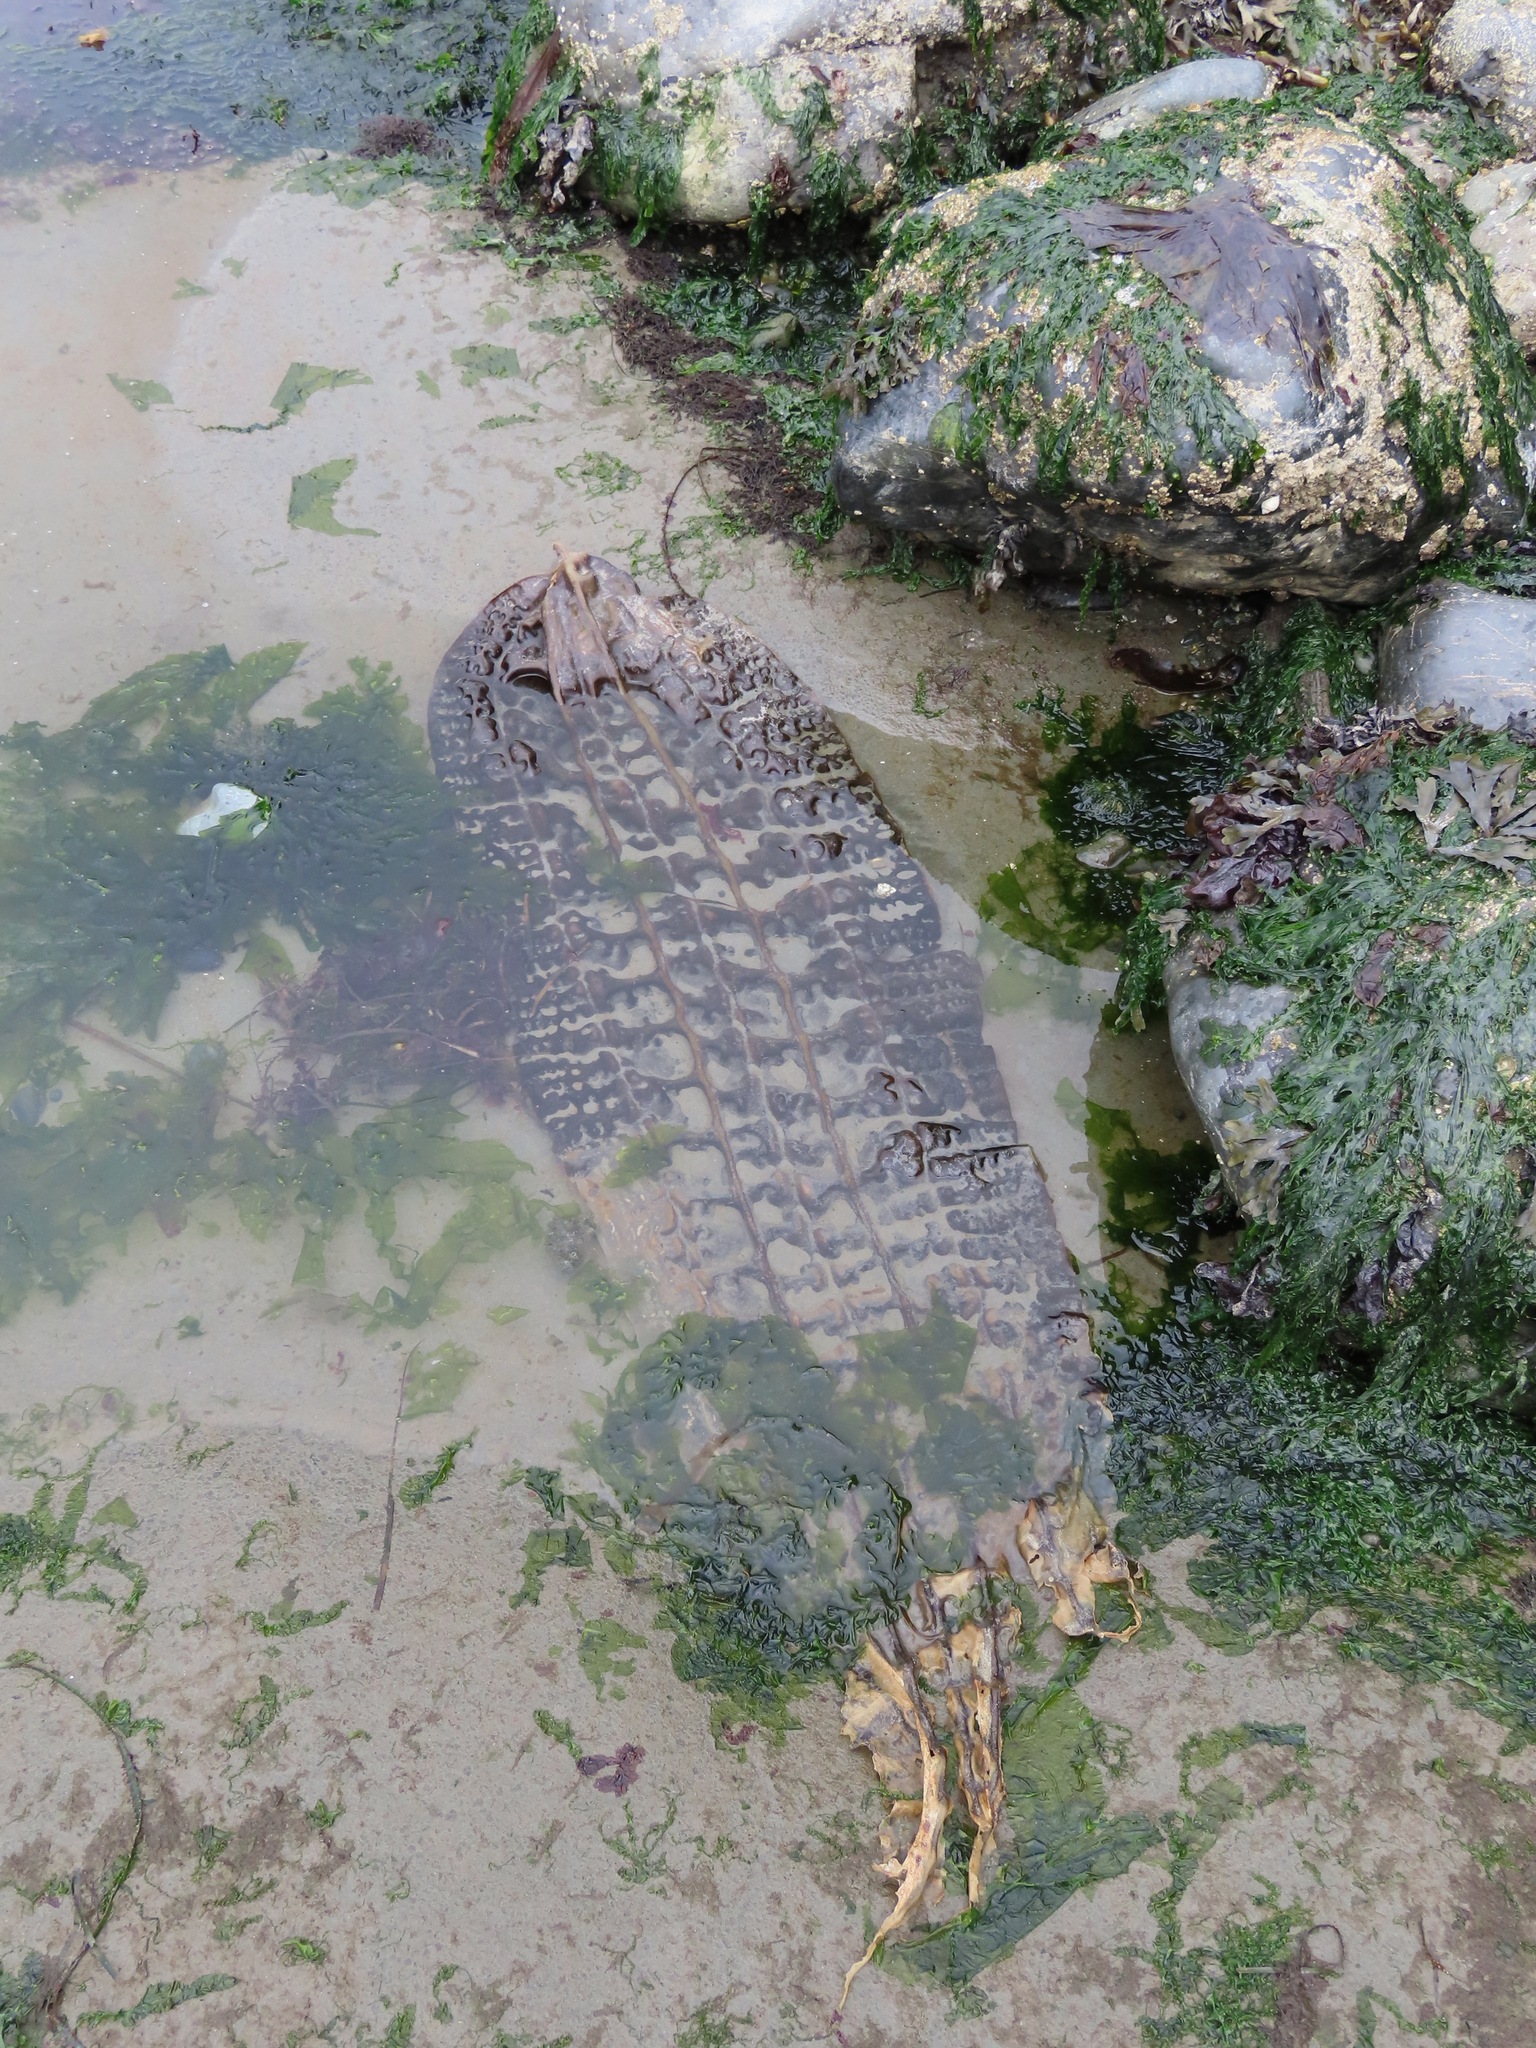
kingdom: Chromista
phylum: Ochrophyta
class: Phaeophyceae
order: Laminariales
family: Costariaceae
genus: Costaria
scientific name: Costaria costata
